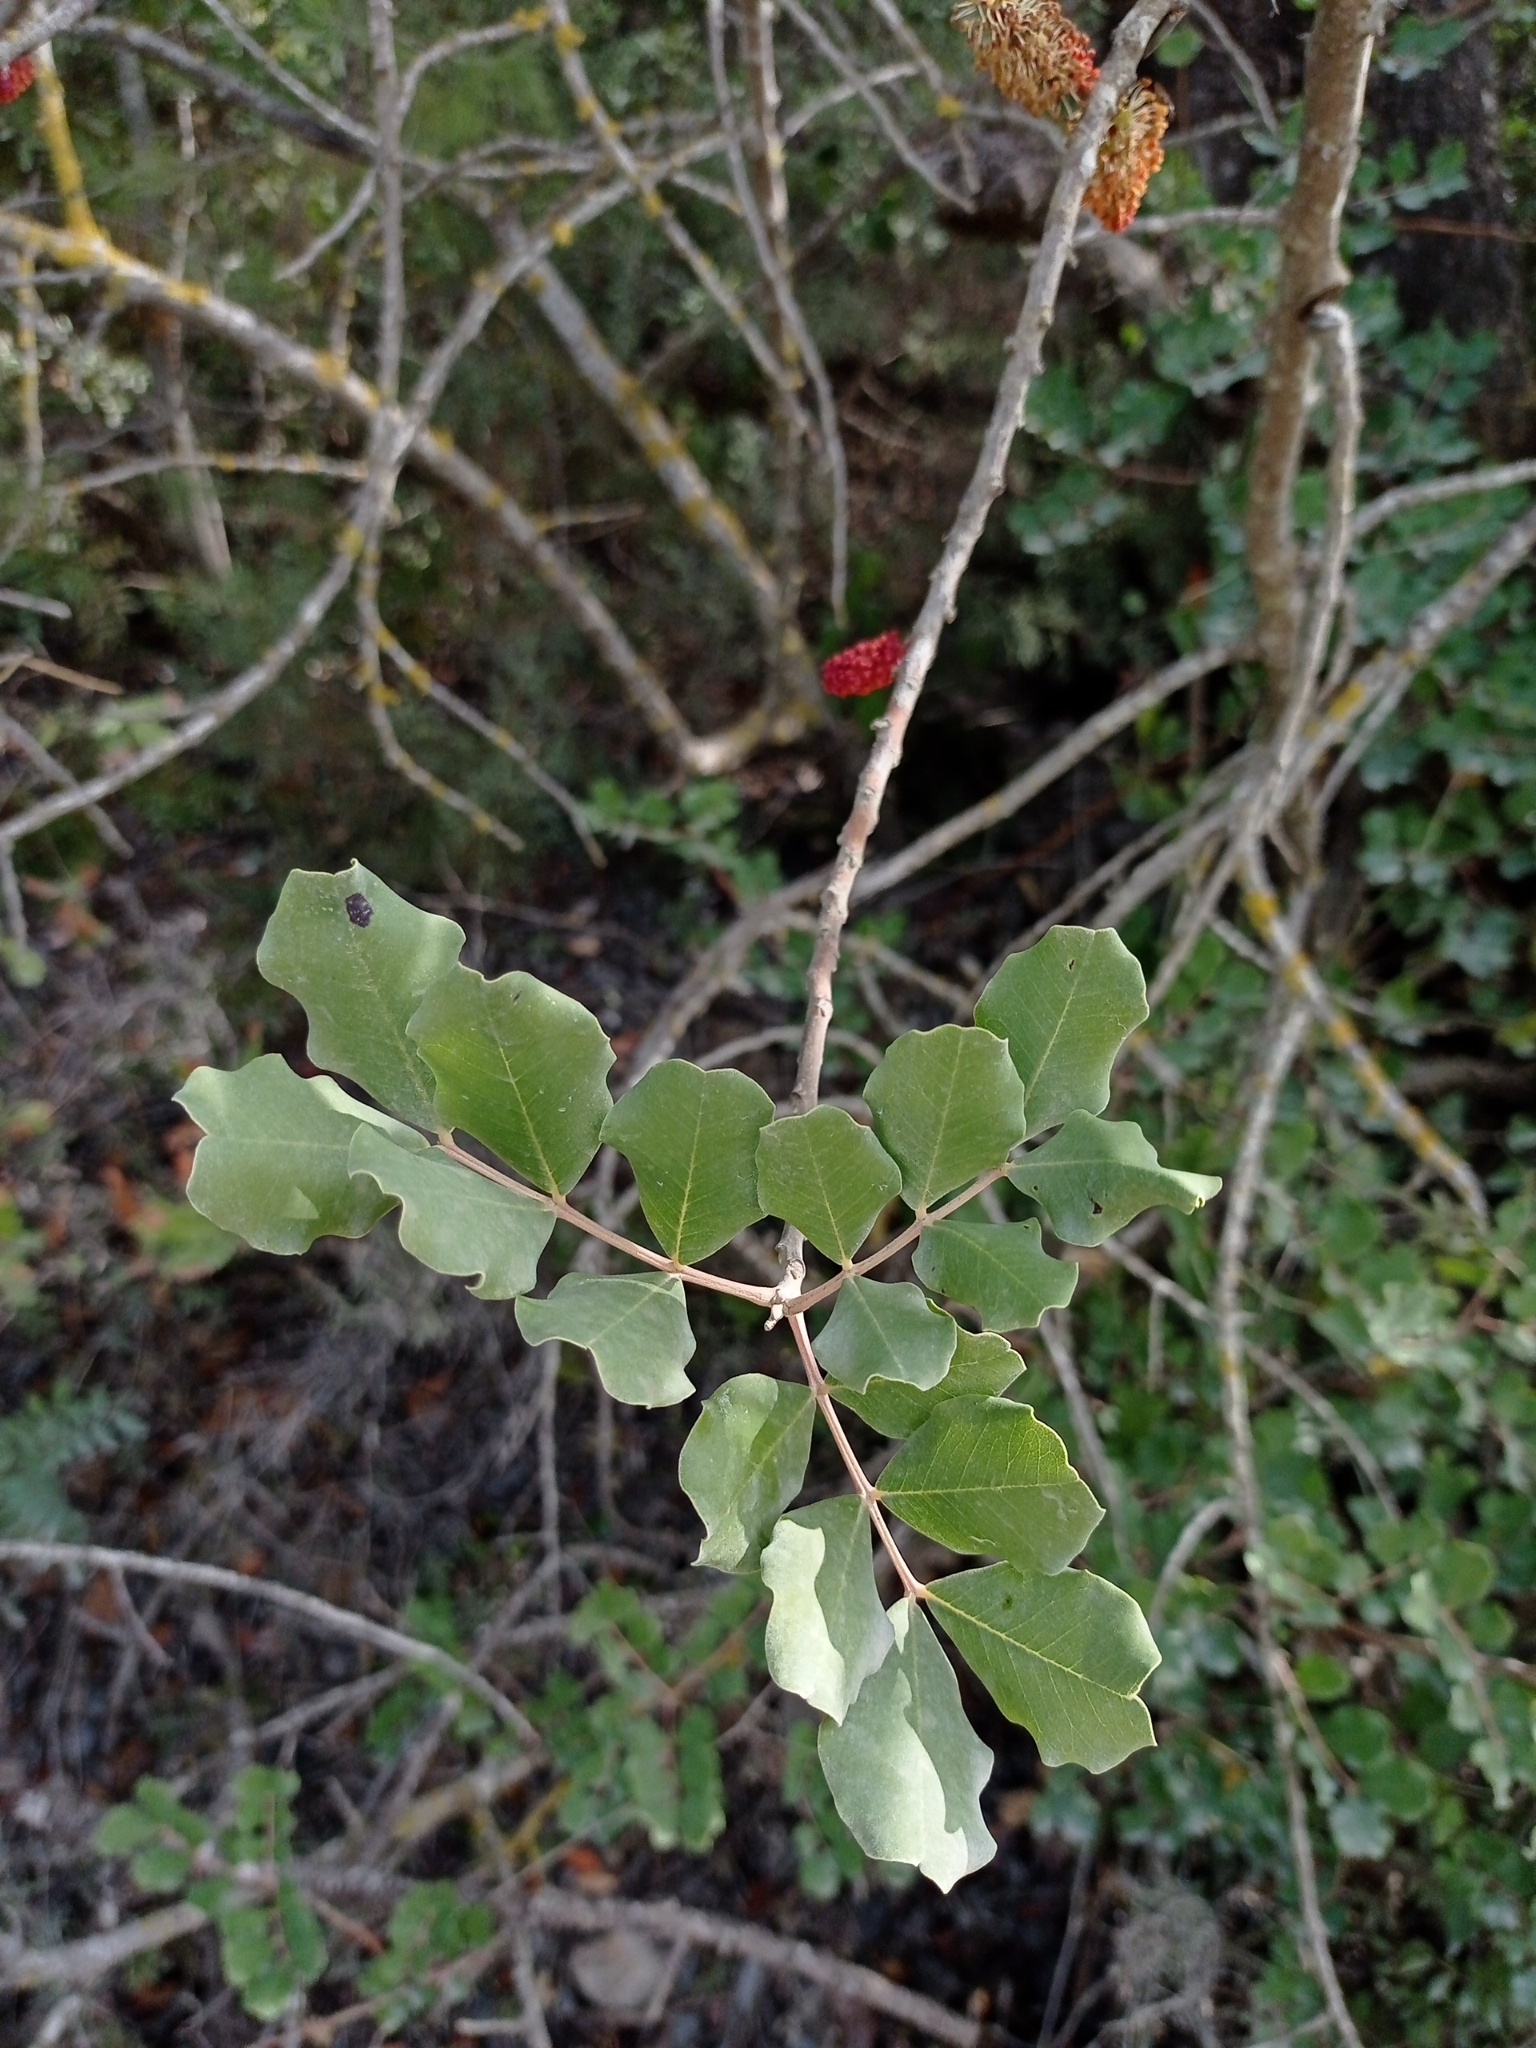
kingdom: Plantae
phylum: Tracheophyta
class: Magnoliopsida
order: Fabales
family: Fabaceae
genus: Ceratonia
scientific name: Ceratonia siliqua
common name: Carob
